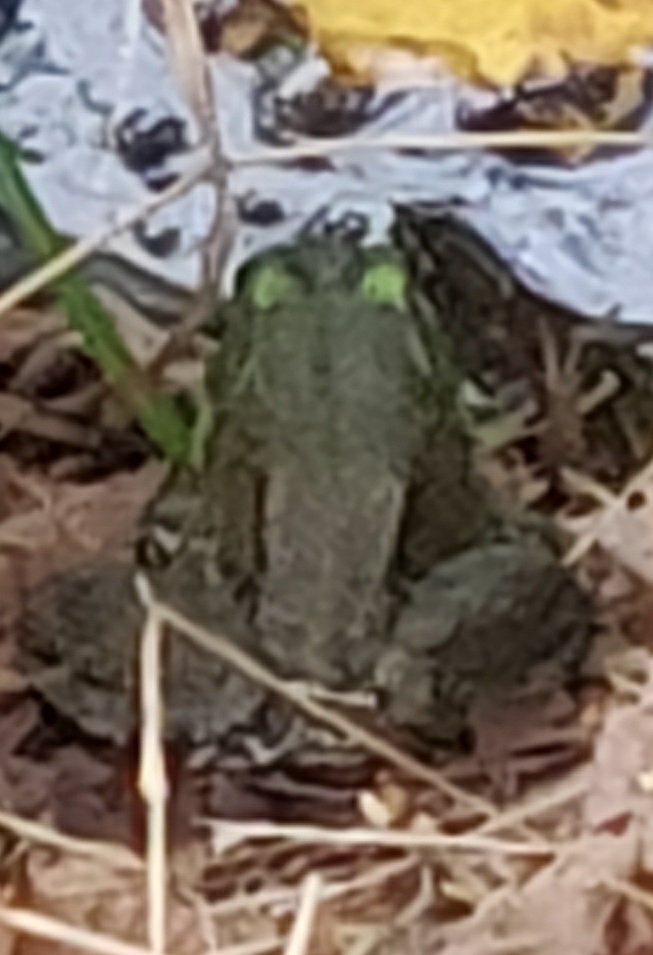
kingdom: Animalia
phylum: Chordata
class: Amphibia
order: Anura
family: Ranidae
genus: Lithobates
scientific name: Lithobates catesbeianus
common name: American bullfrog
